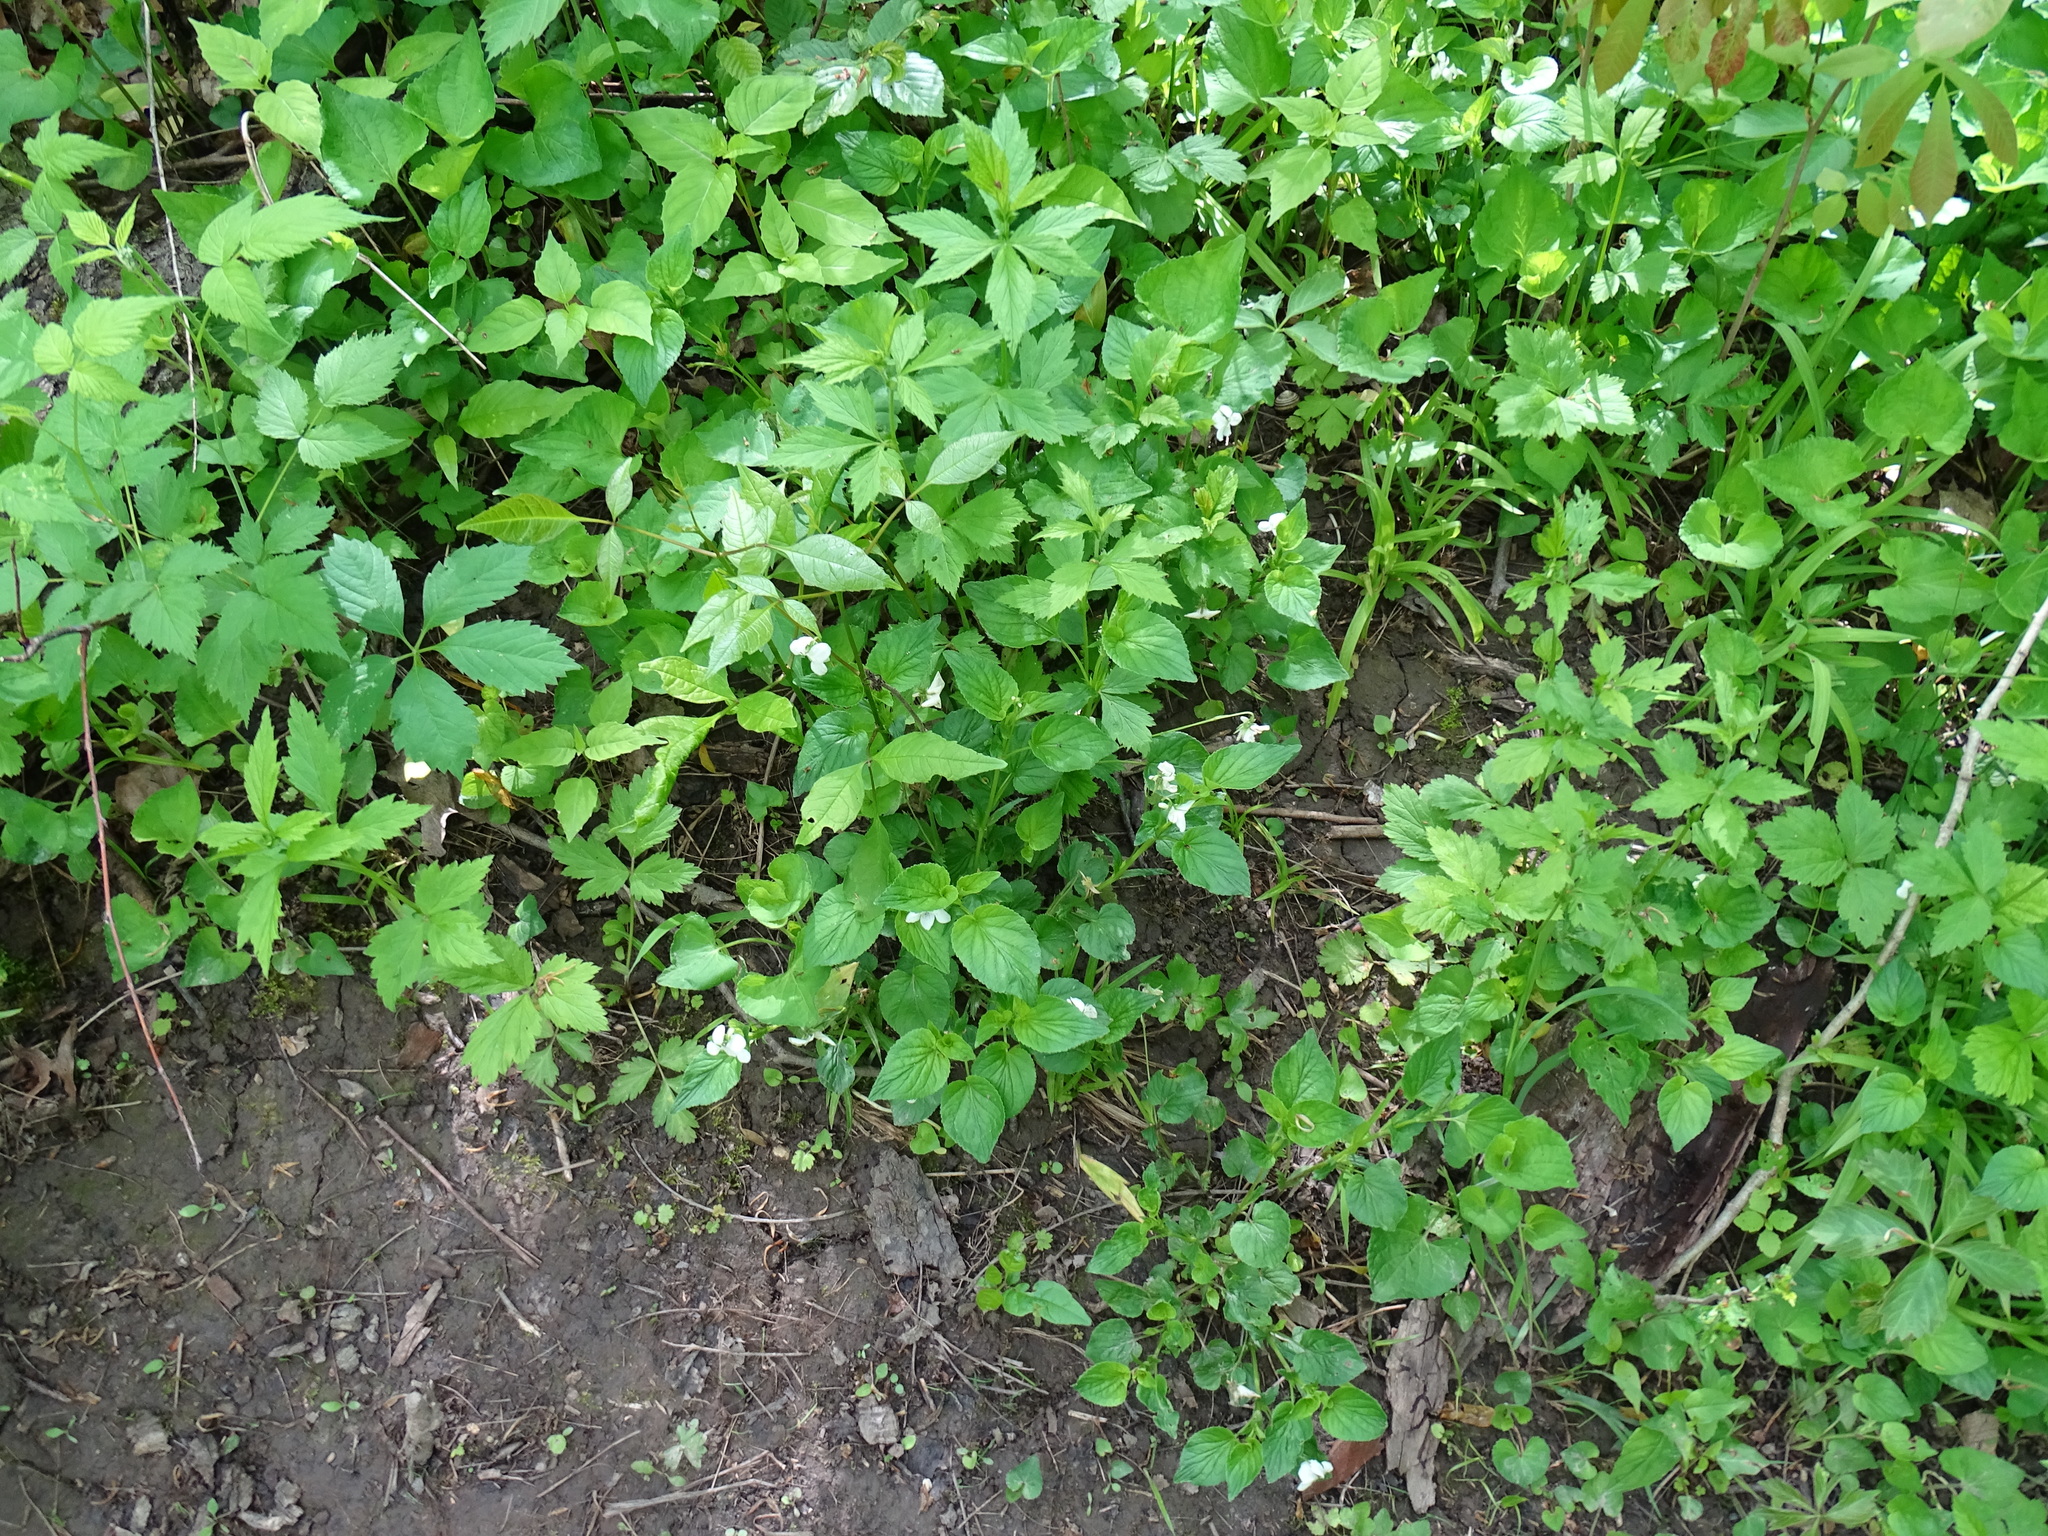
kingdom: Plantae
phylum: Tracheophyta
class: Magnoliopsida
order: Malpighiales
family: Violaceae
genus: Viola
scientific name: Viola striata
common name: Cream violet
